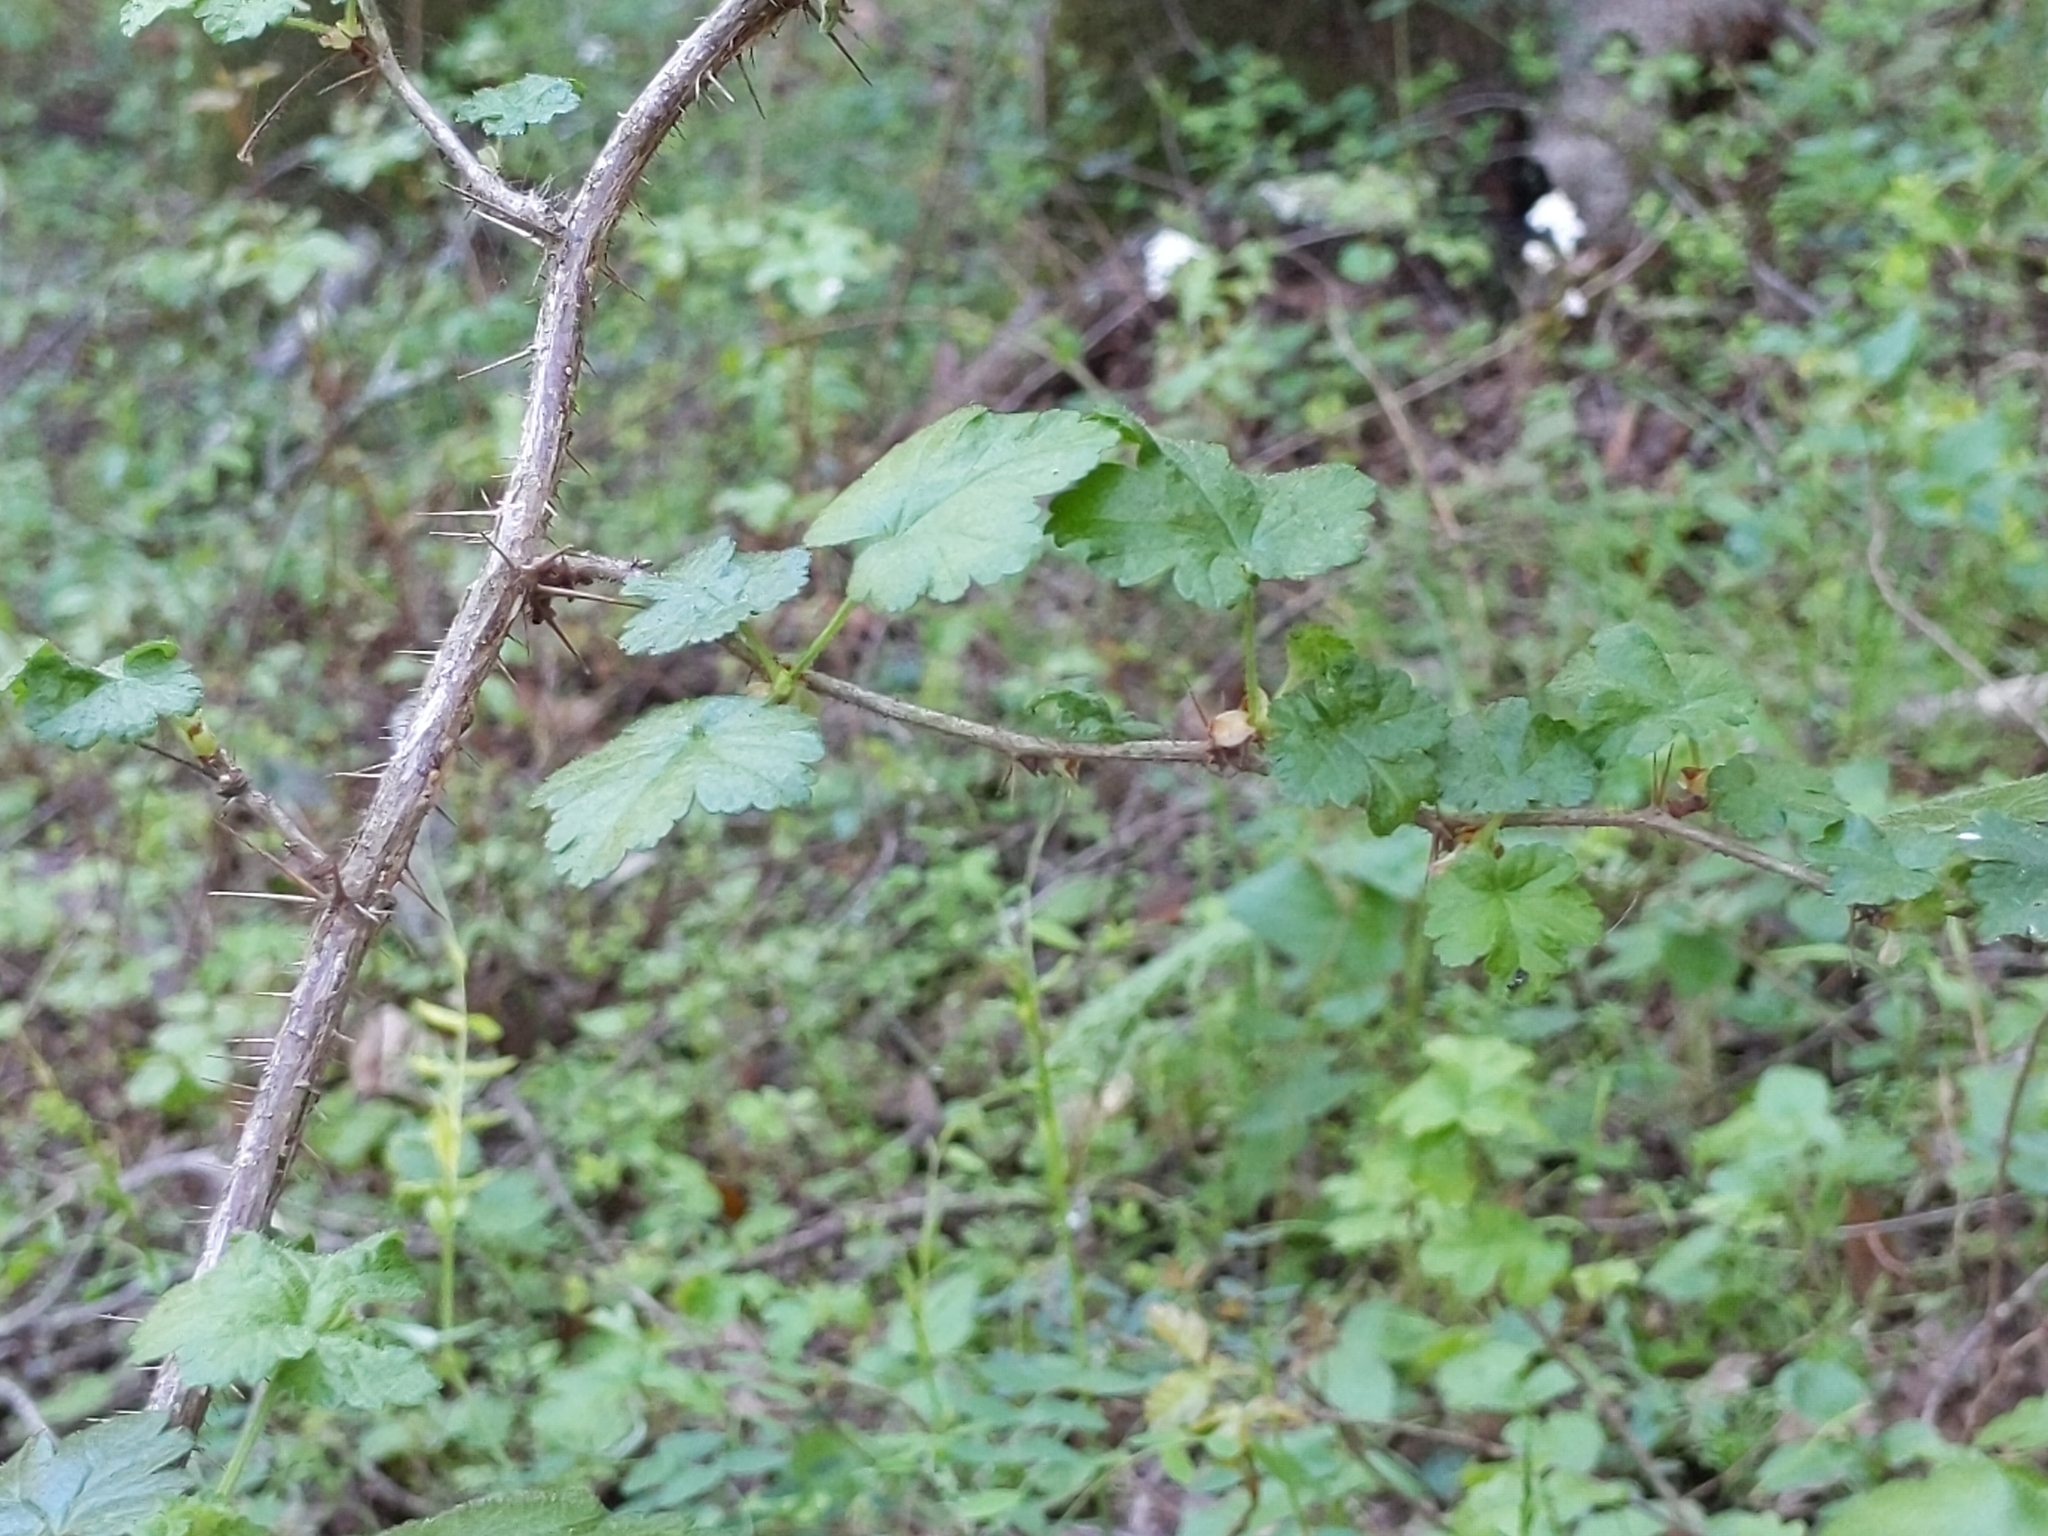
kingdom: Plantae
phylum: Tracheophyta
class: Magnoliopsida
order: Saxifragales
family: Grossulariaceae
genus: Ribes
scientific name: Ribes menziesii
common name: Canyon gooseberry
